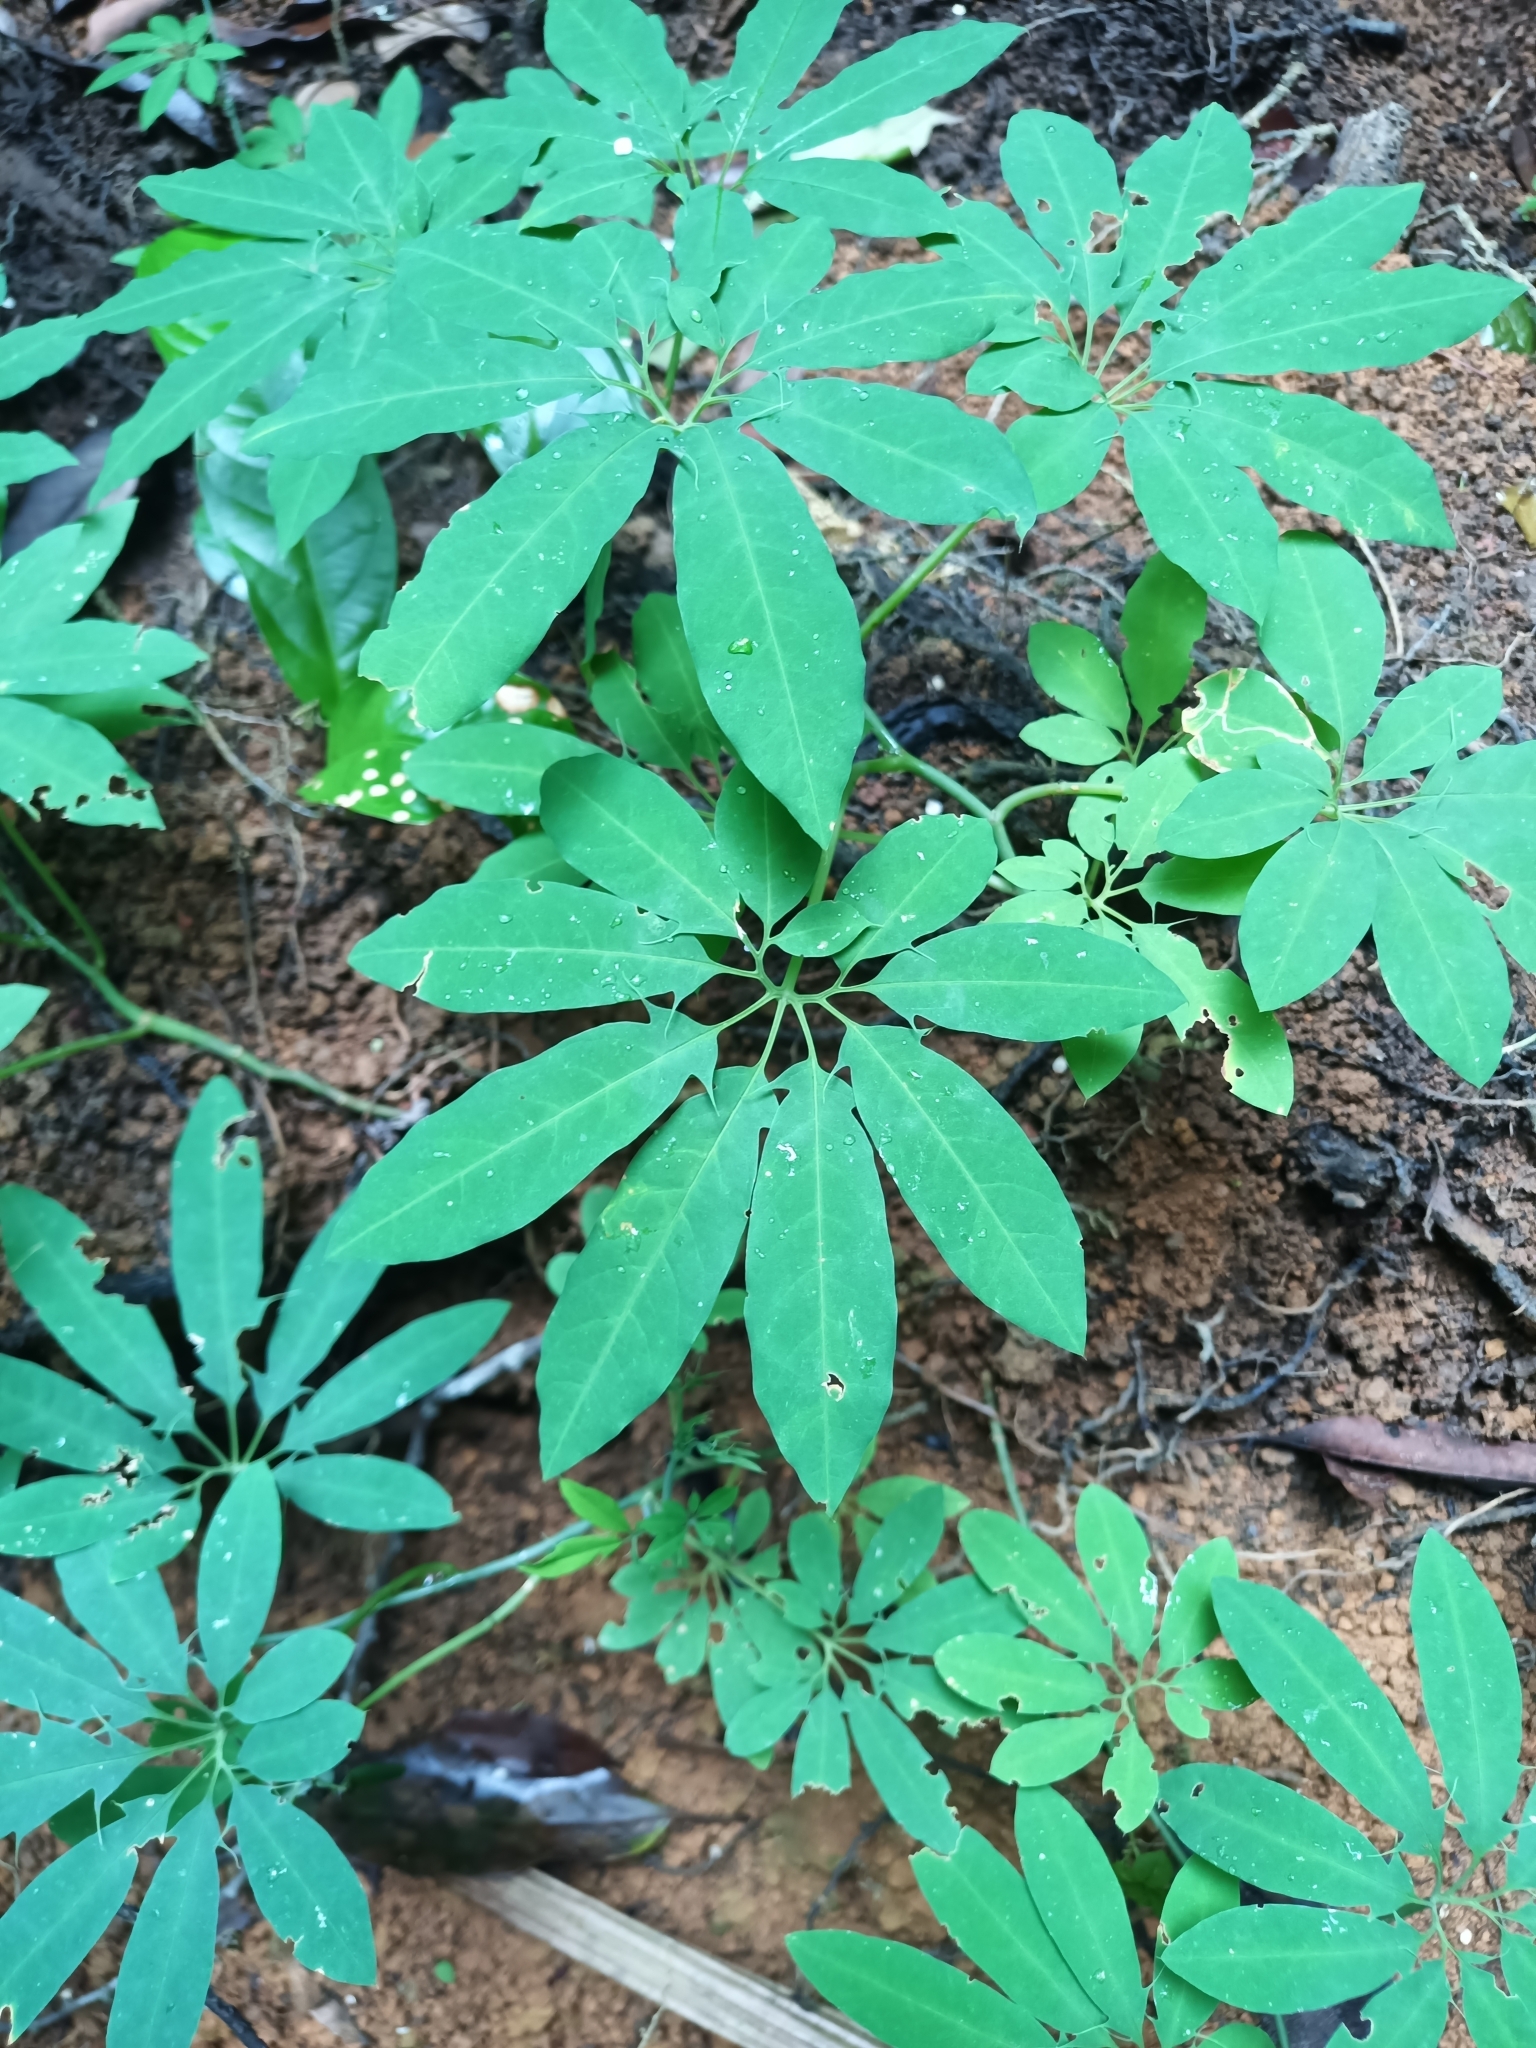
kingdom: Plantae
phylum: Tracheophyta
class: Magnoliopsida
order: Malpighiales
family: Passifloraceae
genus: Passiflora
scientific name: Passiflora cirrhiflora
